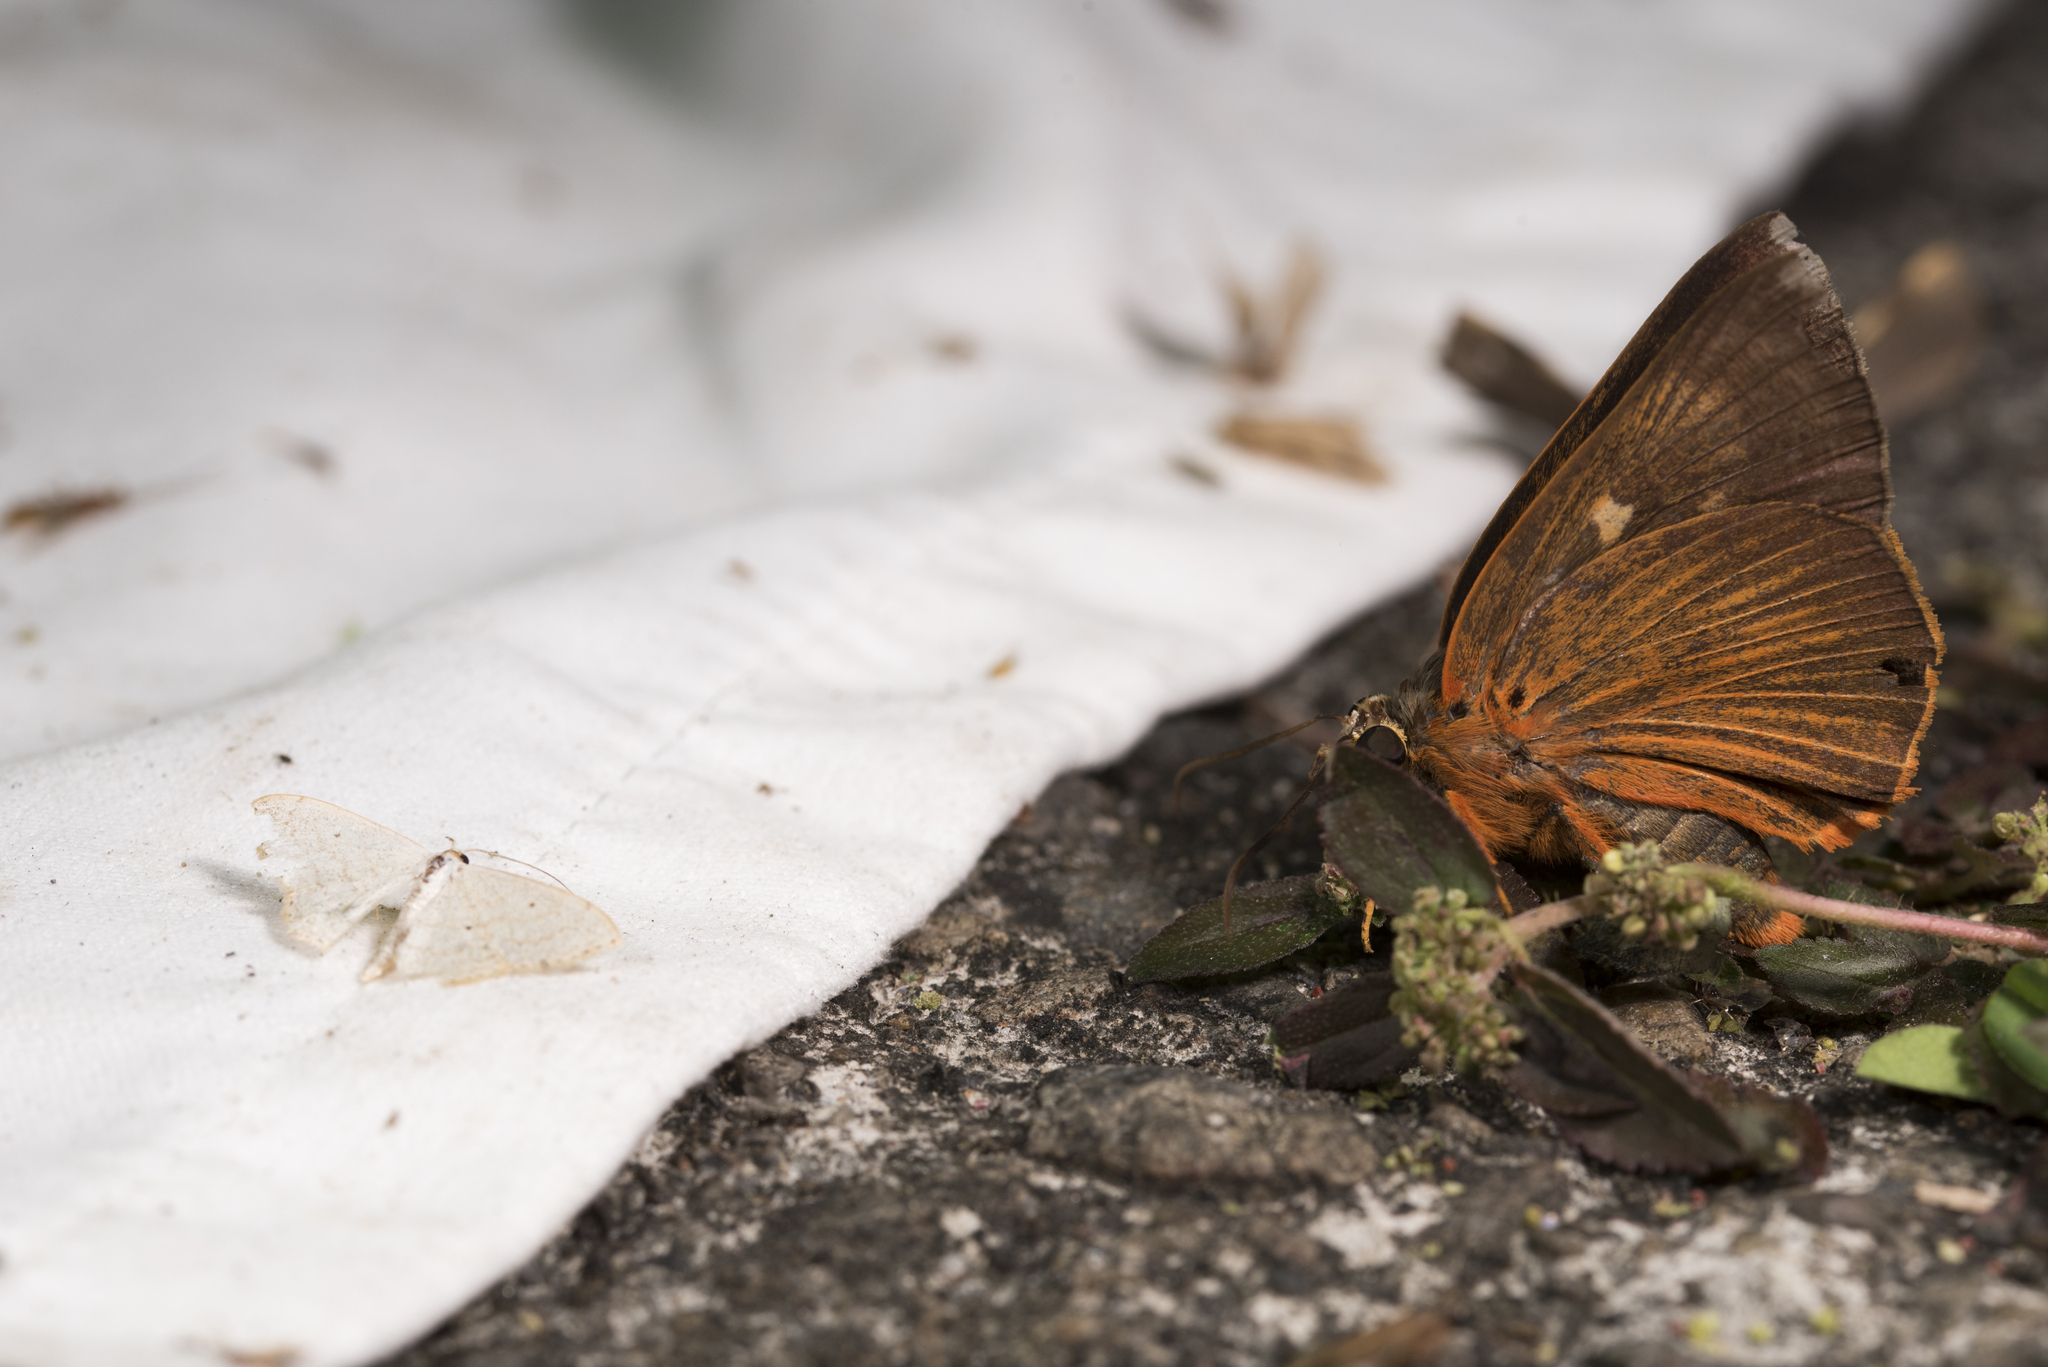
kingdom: Animalia
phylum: Arthropoda
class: Insecta
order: Lepidoptera
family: Hesperiidae
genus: Bibasis
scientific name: Bibasis jaina
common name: Common orange awlet
